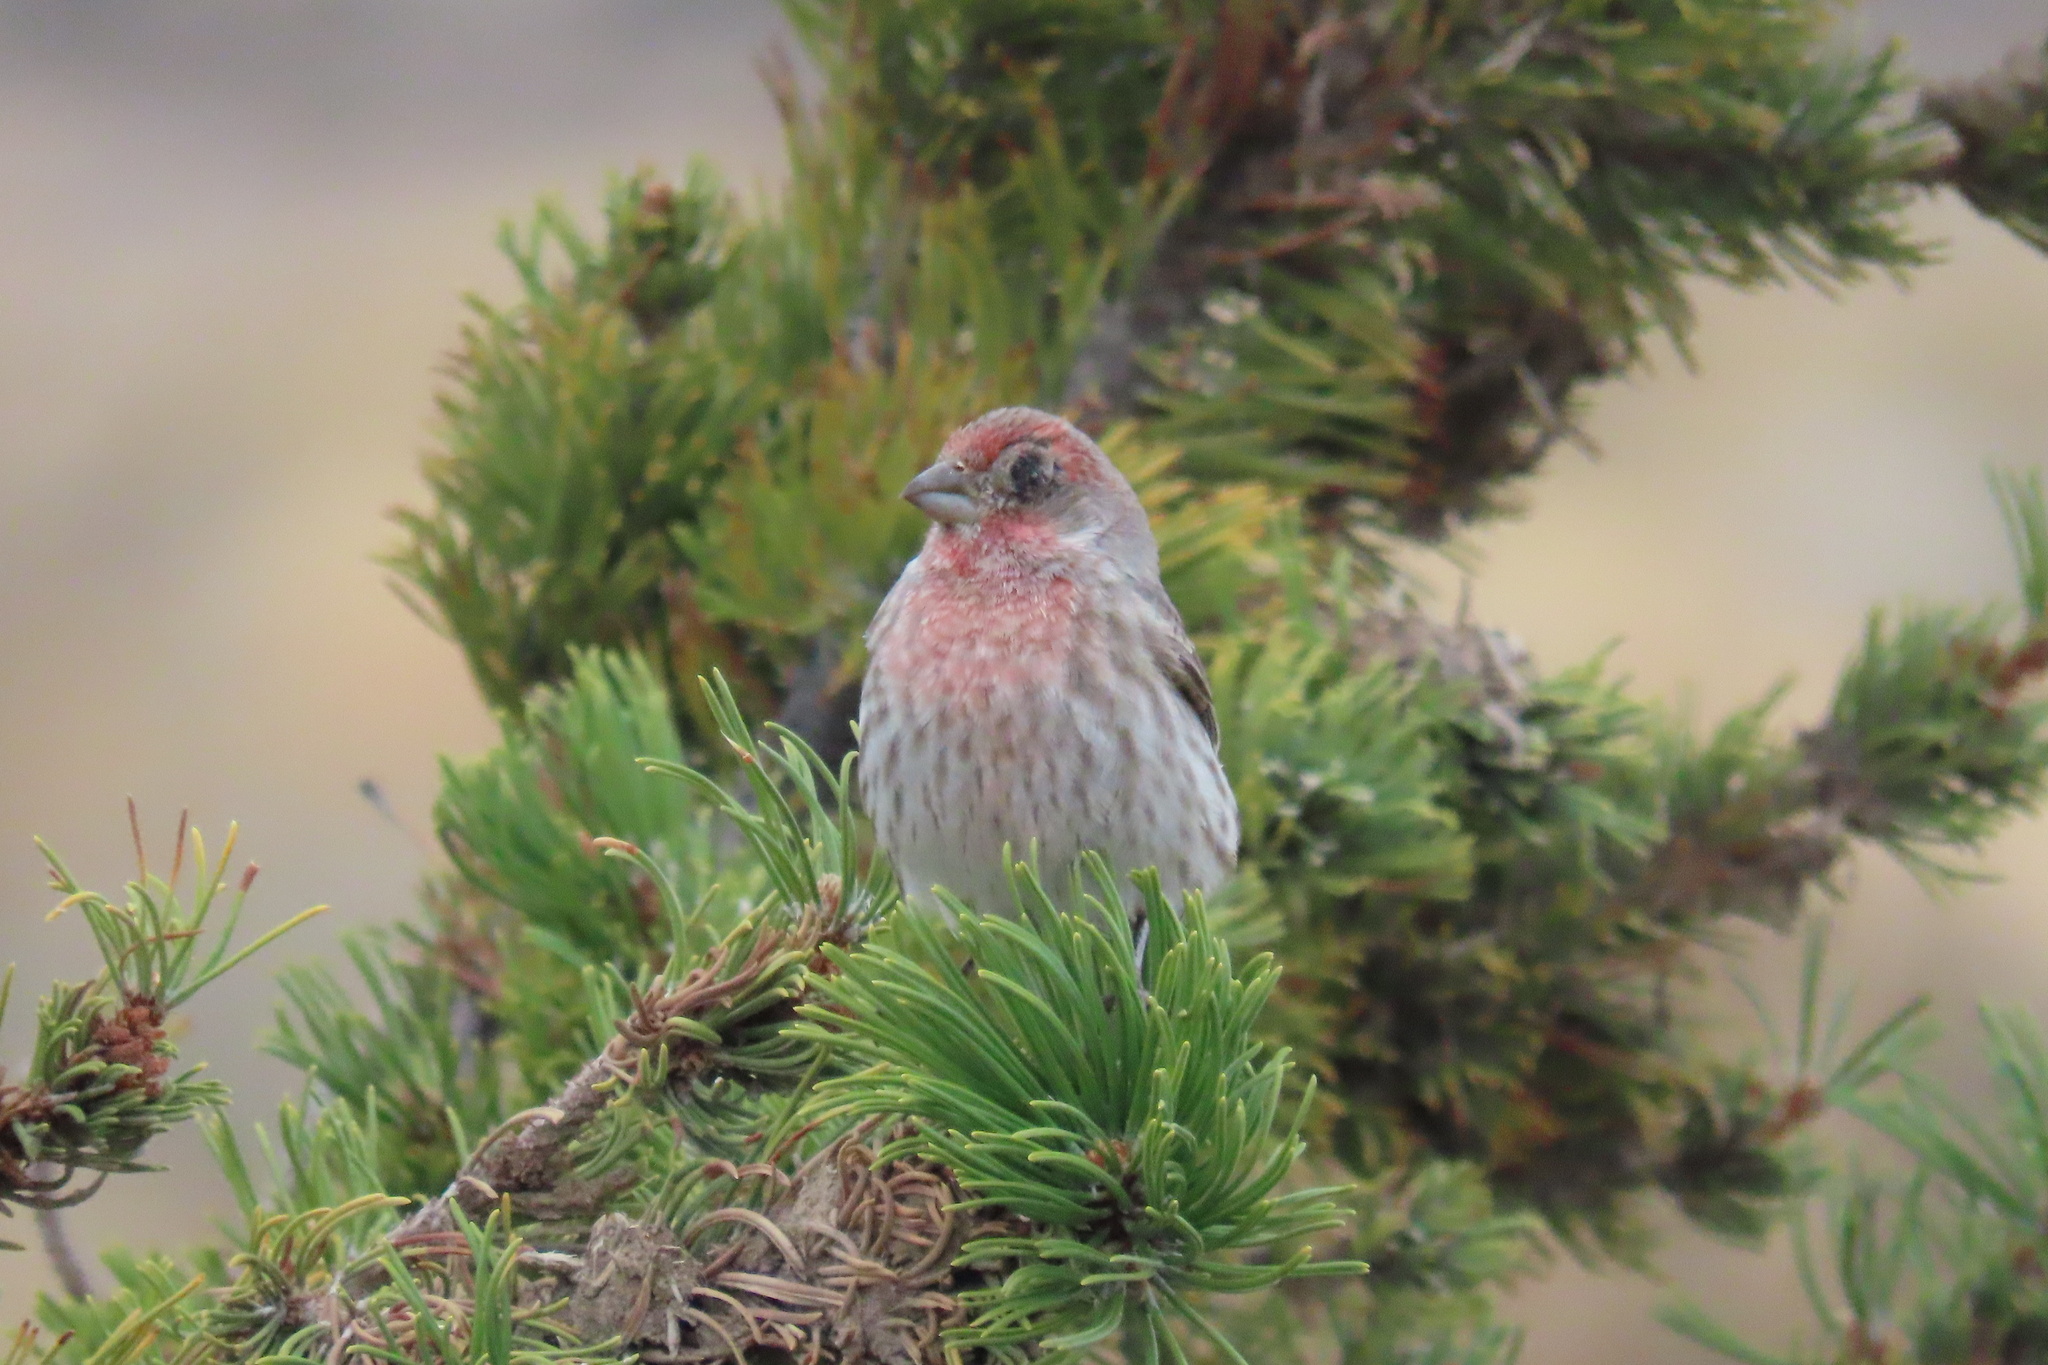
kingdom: Animalia
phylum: Chordata
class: Aves
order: Passeriformes
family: Fringillidae
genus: Haemorhous
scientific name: Haemorhous mexicanus
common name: House finch
